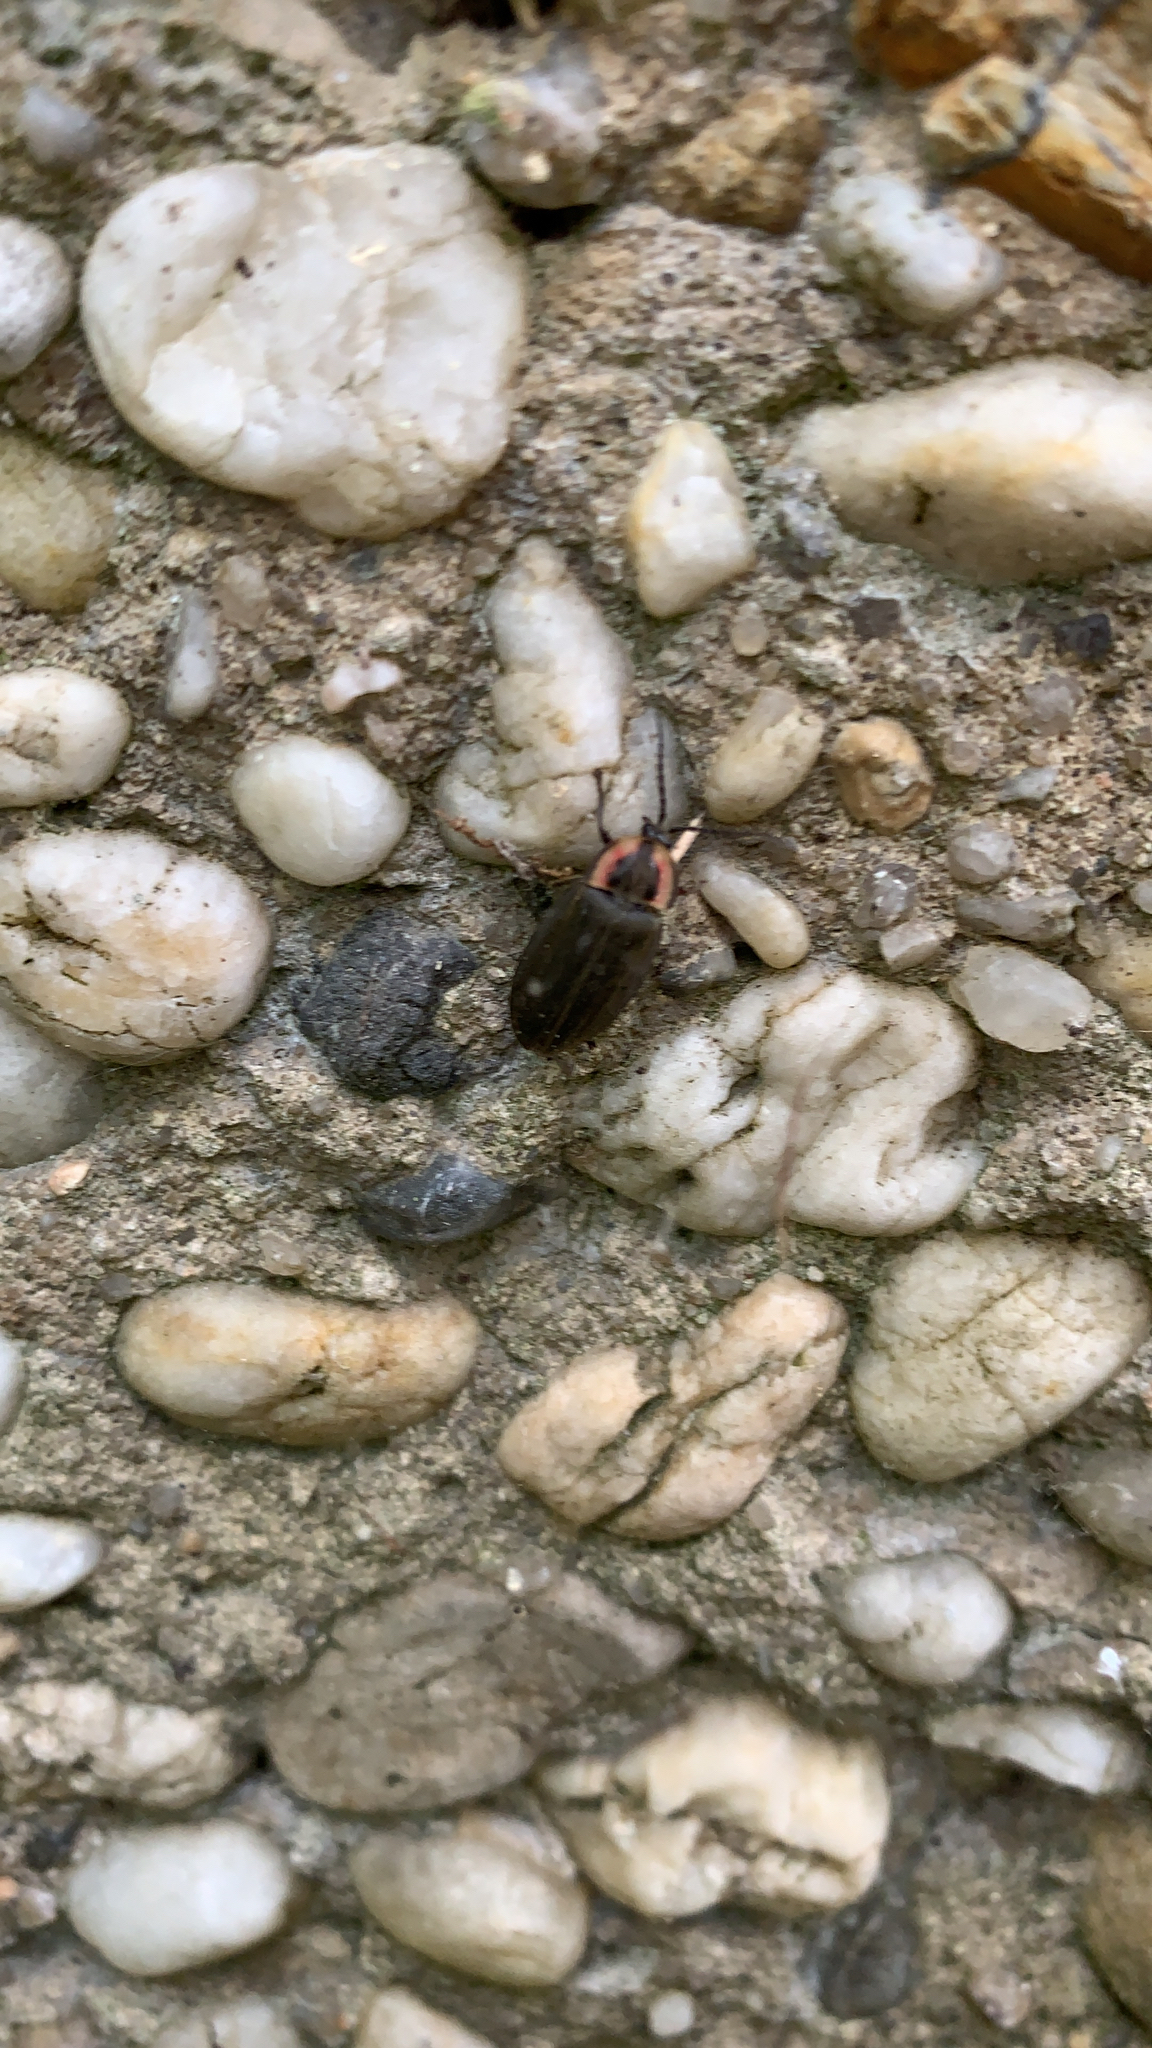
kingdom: Animalia
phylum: Arthropoda
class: Insecta
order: Coleoptera
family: Lampyridae
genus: Photinus
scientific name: Photinus corrusca
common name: Winter firefly
